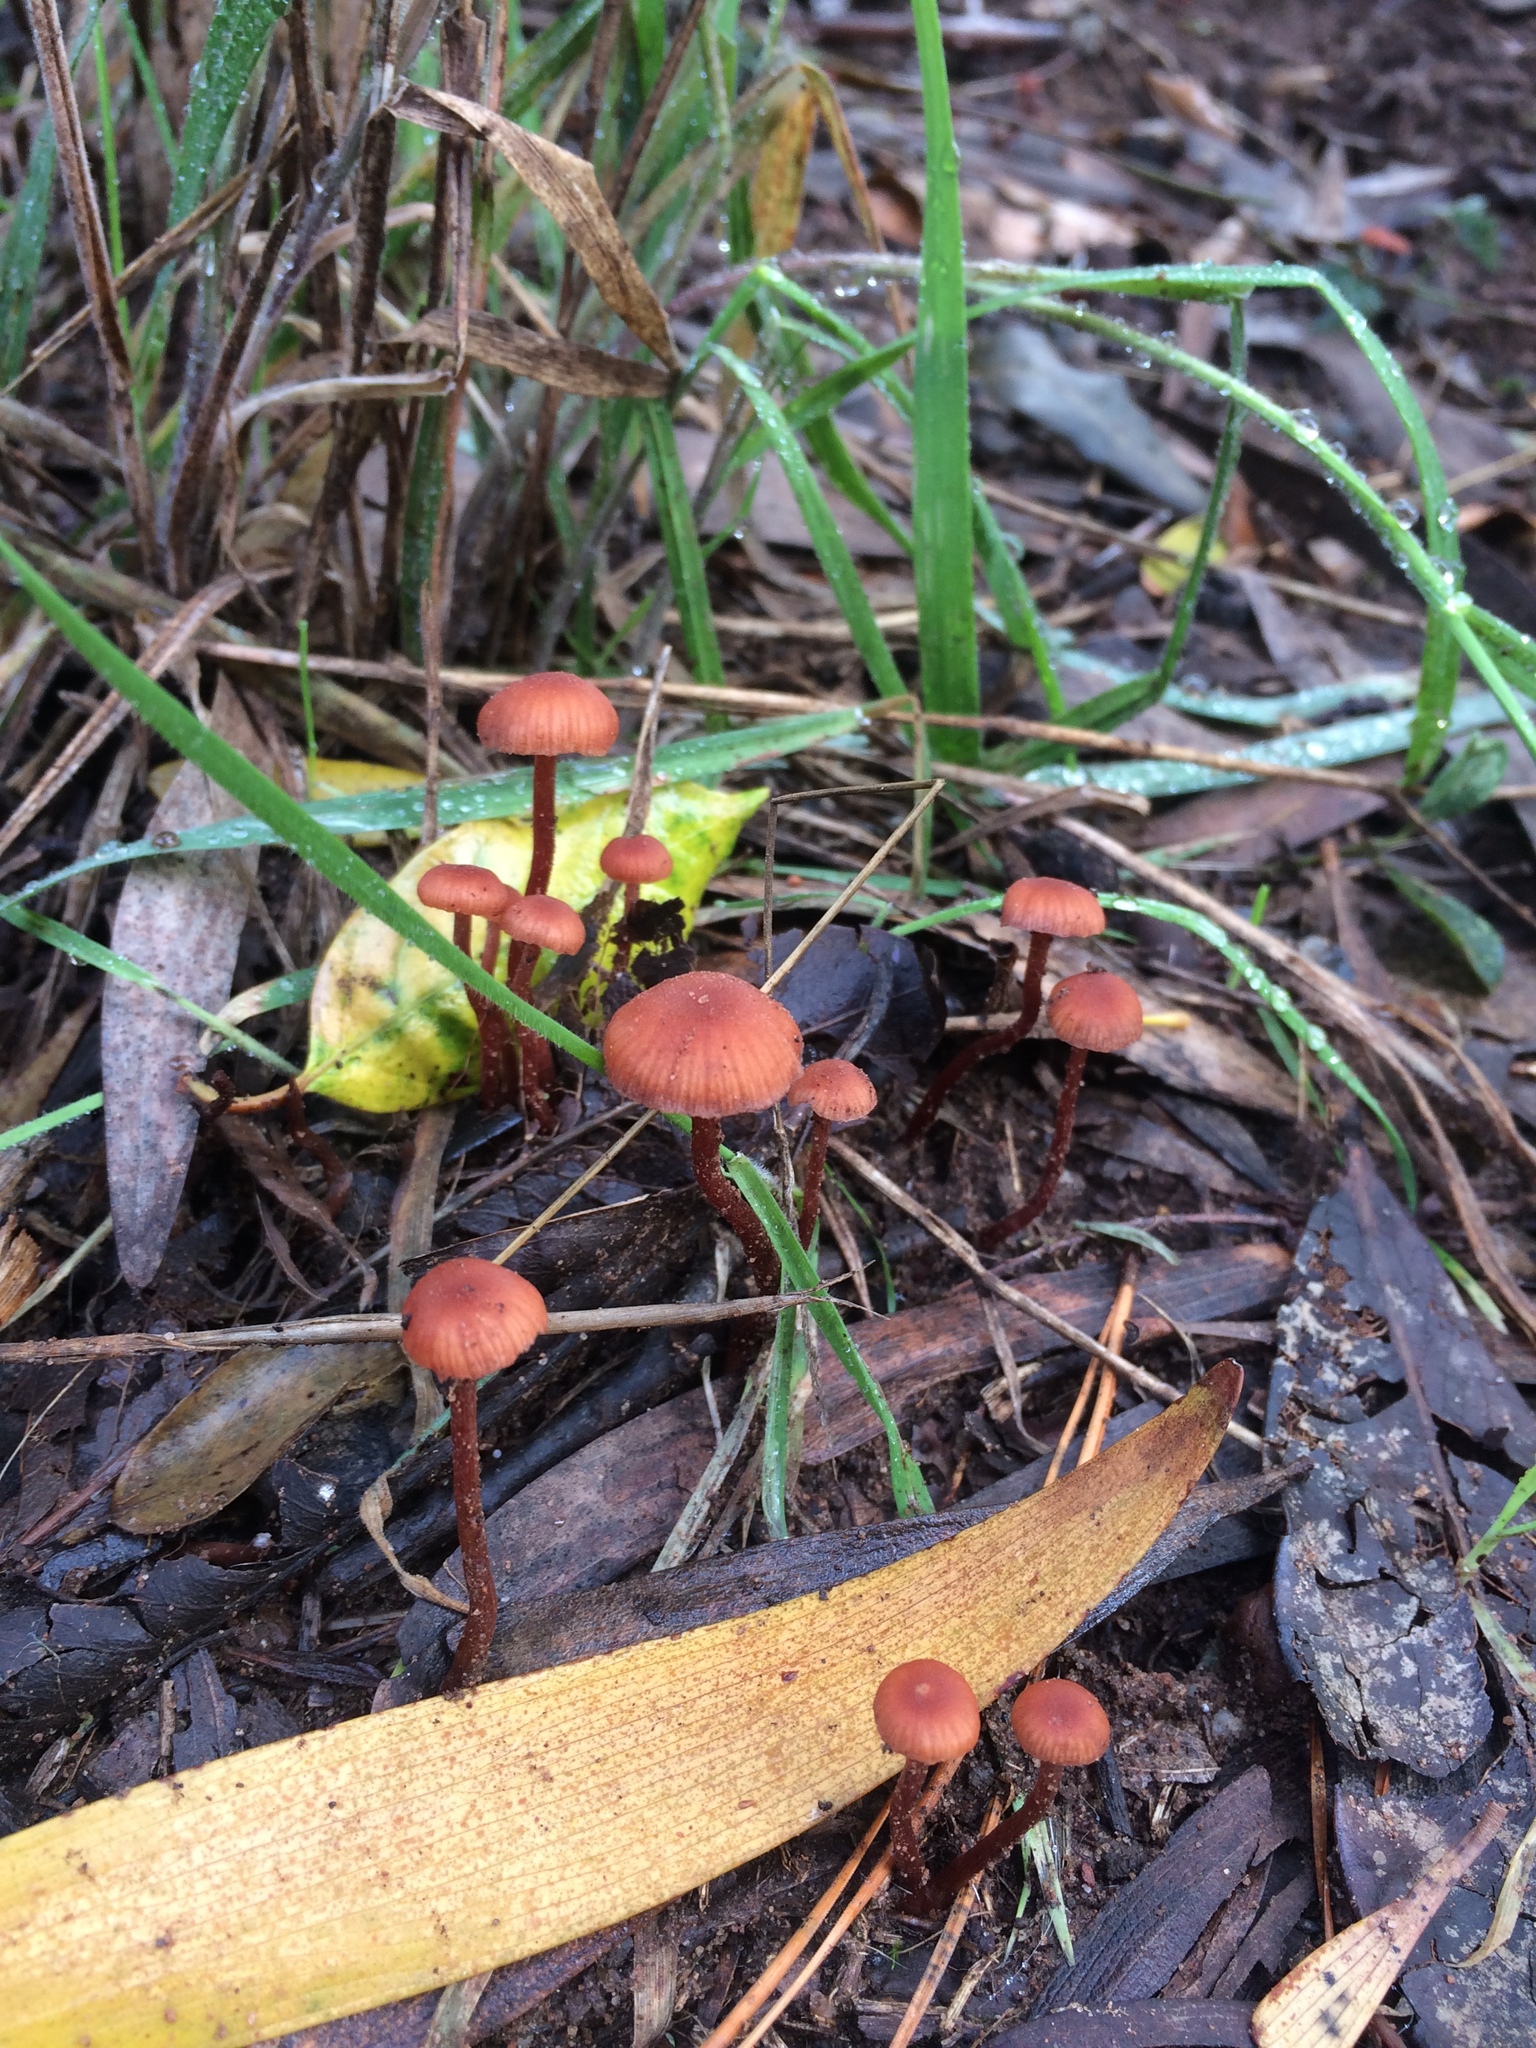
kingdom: Fungi
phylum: Basidiomycota
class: Agaricomycetes
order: Agaricales
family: Hydnangiaceae
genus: Laccaria
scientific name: Laccaria laccata
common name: Deceiver
